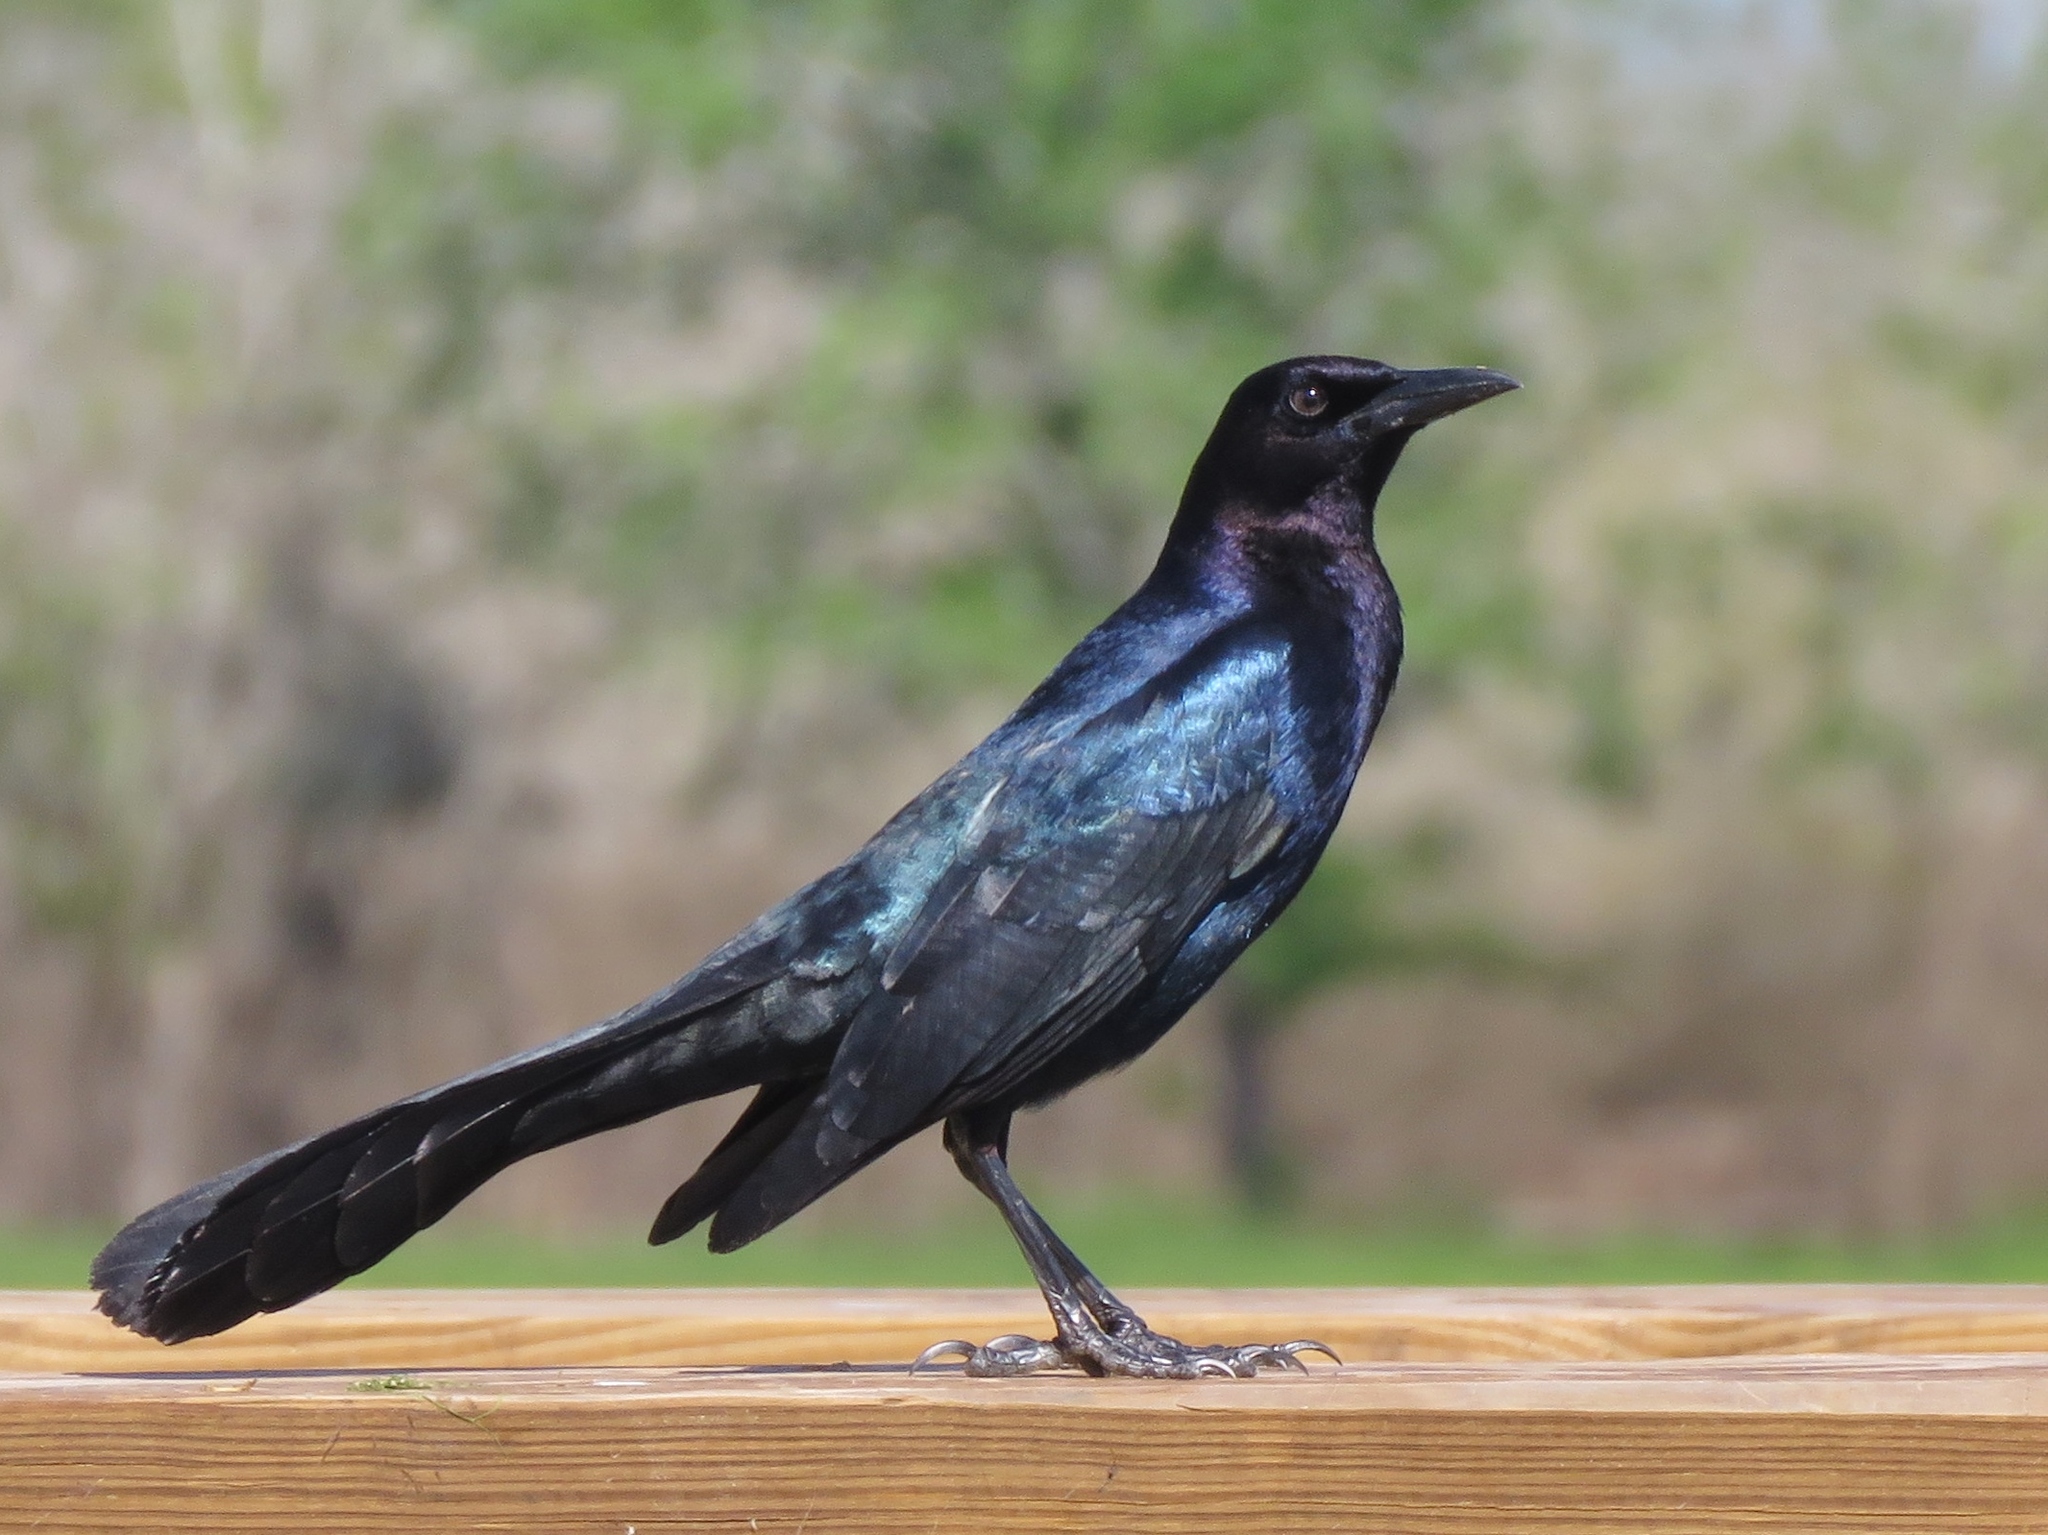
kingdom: Animalia
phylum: Chordata
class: Aves
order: Passeriformes
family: Icteridae
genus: Quiscalus
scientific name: Quiscalus major
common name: Boat-tailed grackle
